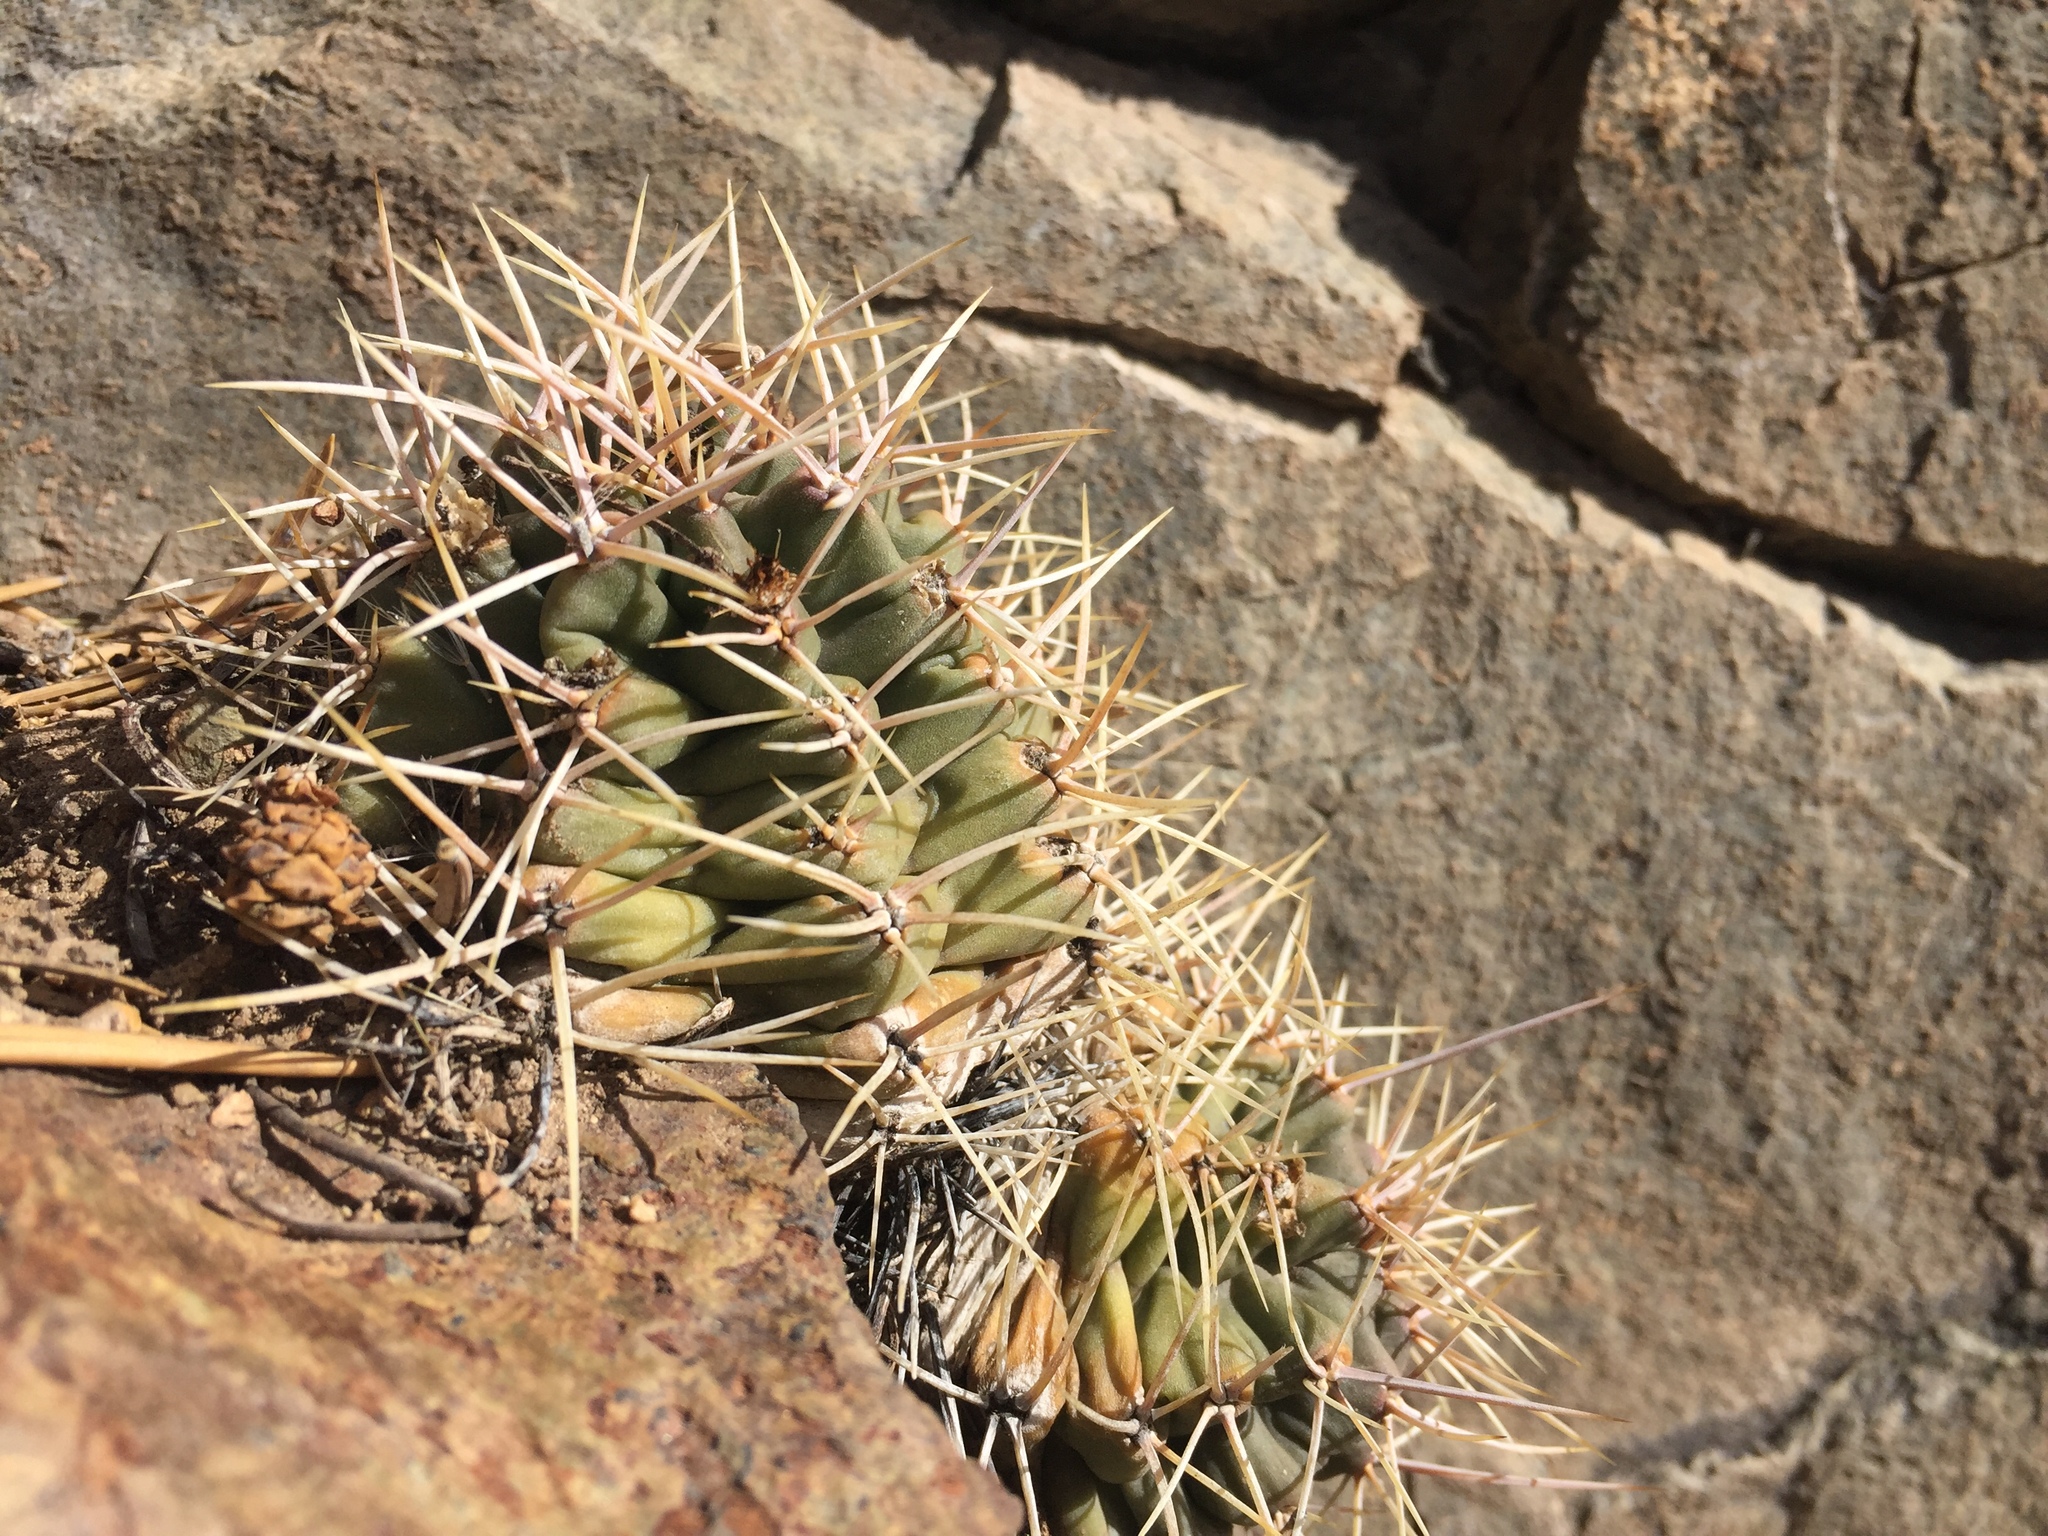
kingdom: Plantae
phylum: Tracheophyta
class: Magnoliopsida
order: Caryophyllales
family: Cactaceae
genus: Echinocereus
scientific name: Echinocereus triglochidiatus
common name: Claretcup hedgehog
